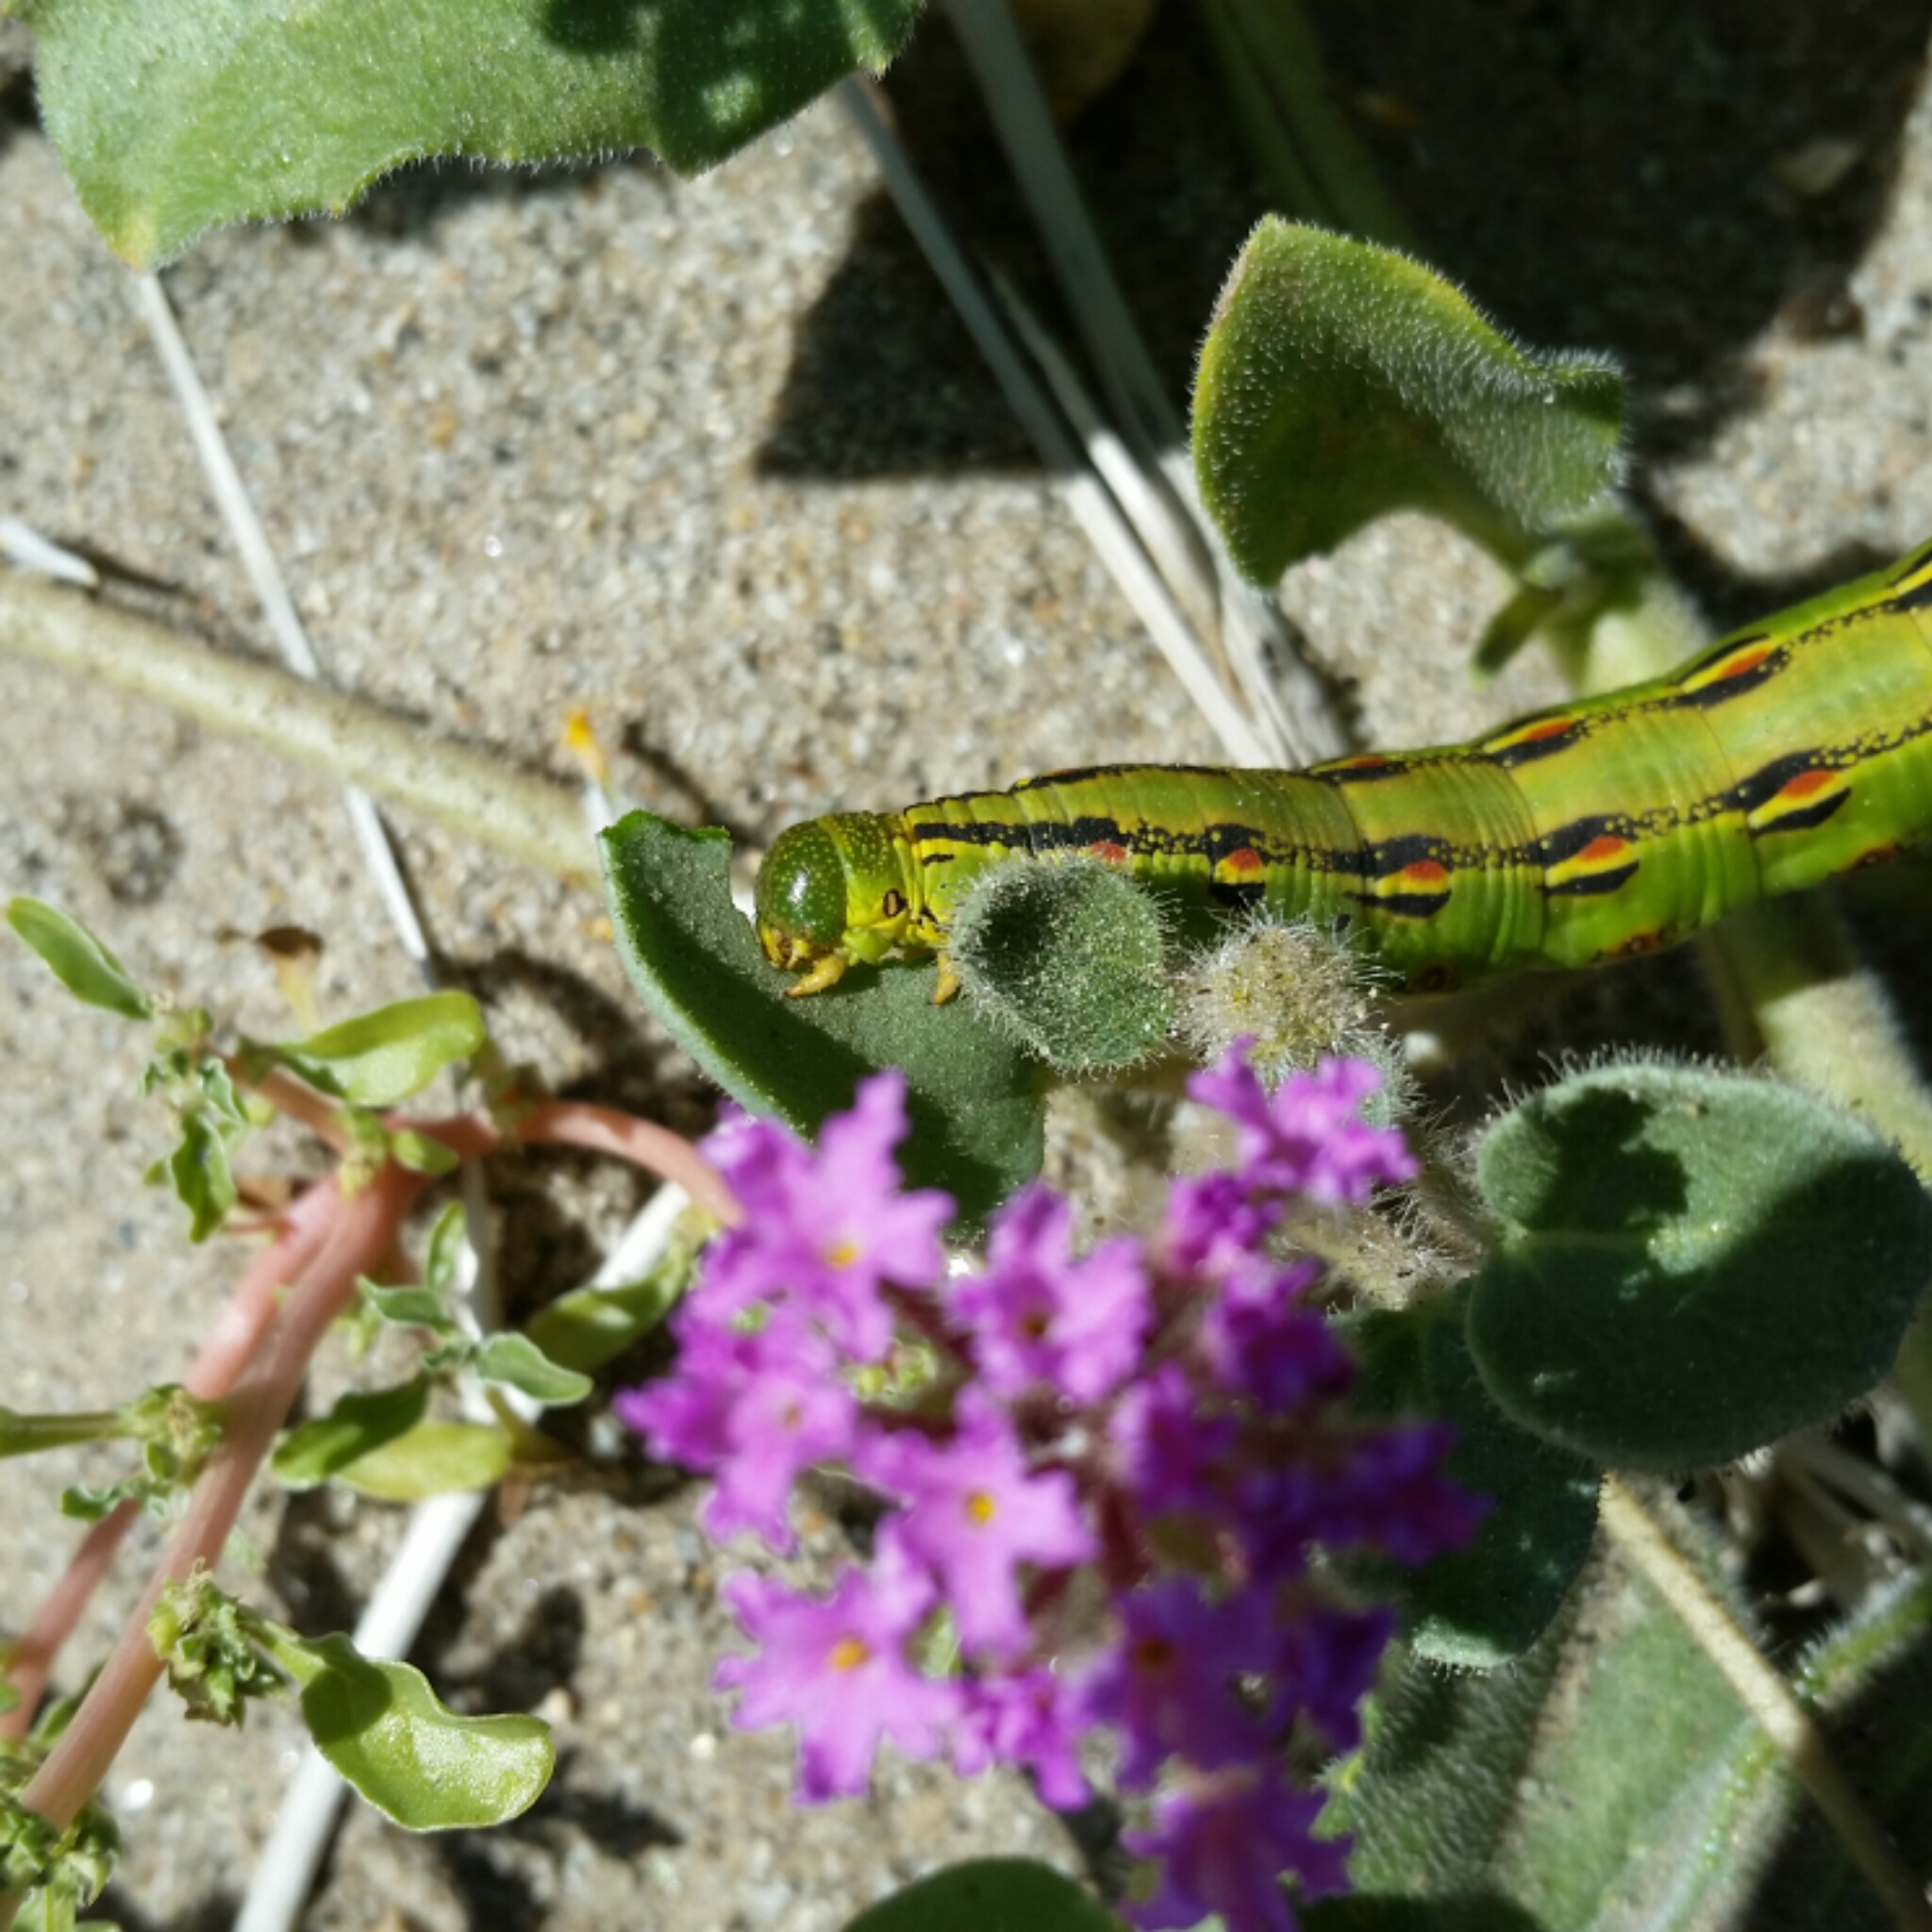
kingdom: Animalia
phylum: Arthropoda
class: Insecta
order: Lepidoptera
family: Sphingidae
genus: Hyles
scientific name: Hyles lineata
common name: White-lined sphinx
